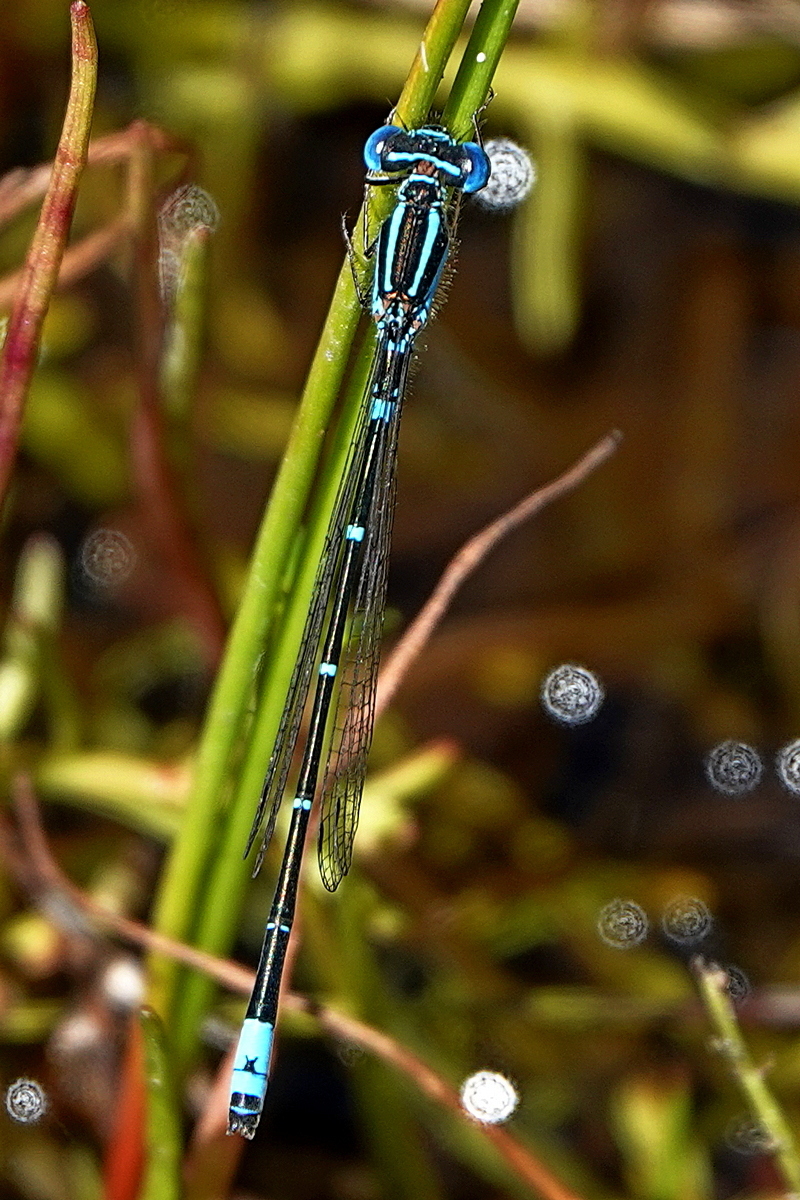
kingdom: Animalia
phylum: Arthropoda
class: Insecta
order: Odonata
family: Coenagrionidae
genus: Austroagrion
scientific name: Austroagrion watsoni
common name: Eastern billabongfly
